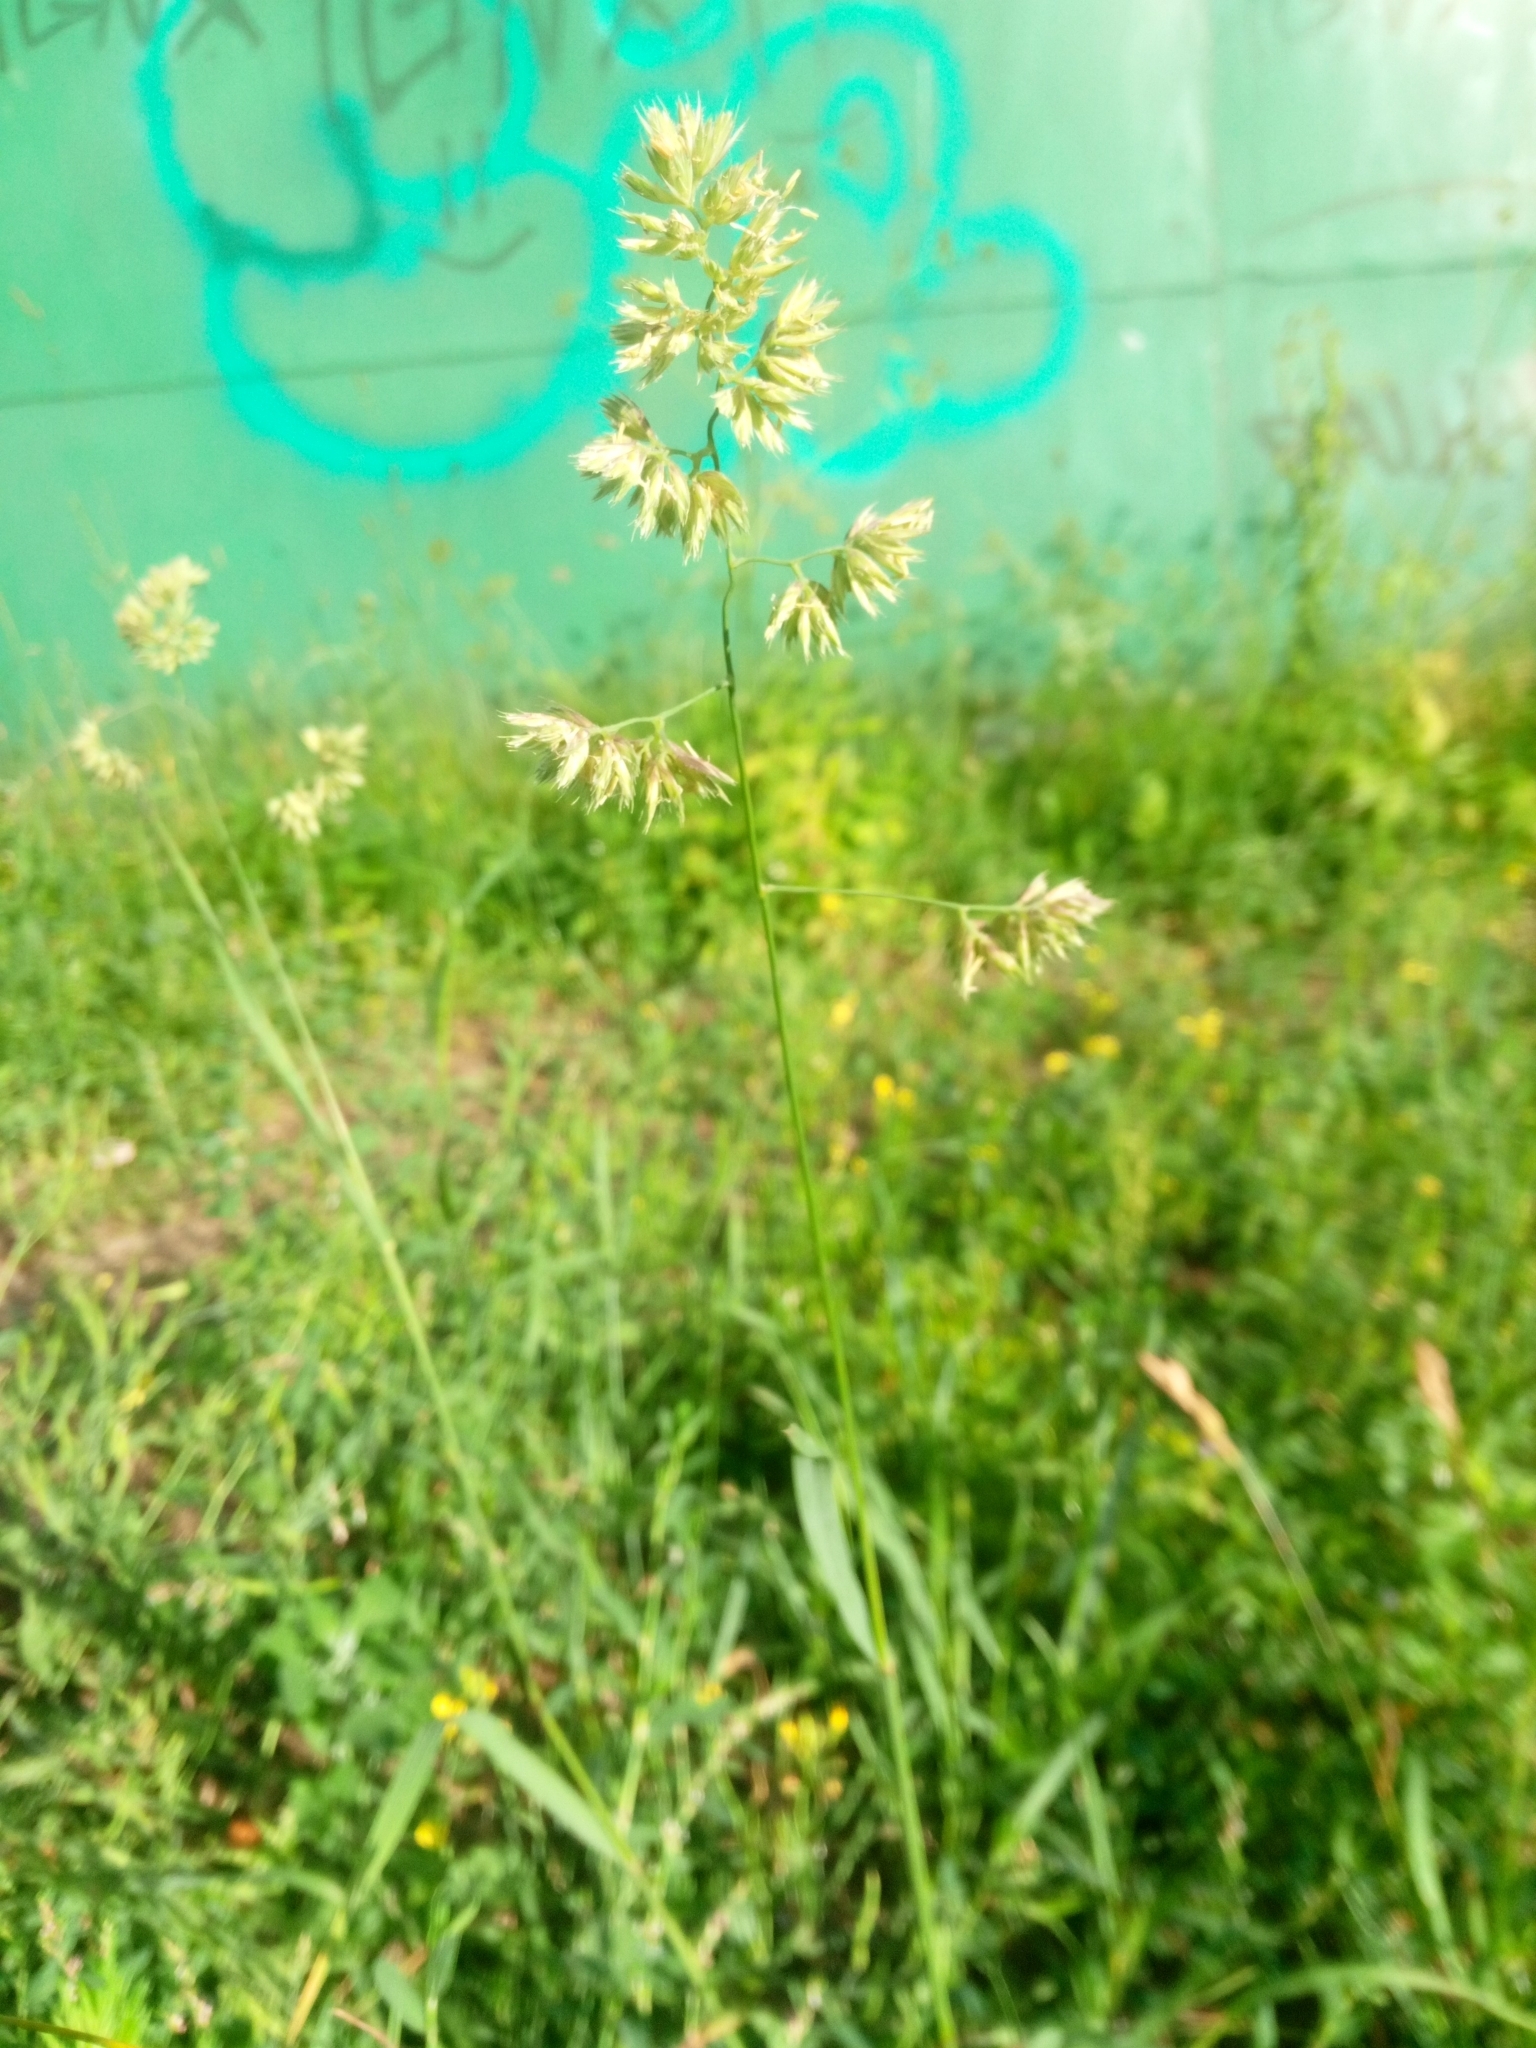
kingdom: Plantae
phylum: Tracheophyta
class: Liliopsida
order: Poales
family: Poaceae
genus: Dactylis
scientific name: Dactylis glomerata
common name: Orchardgrass
